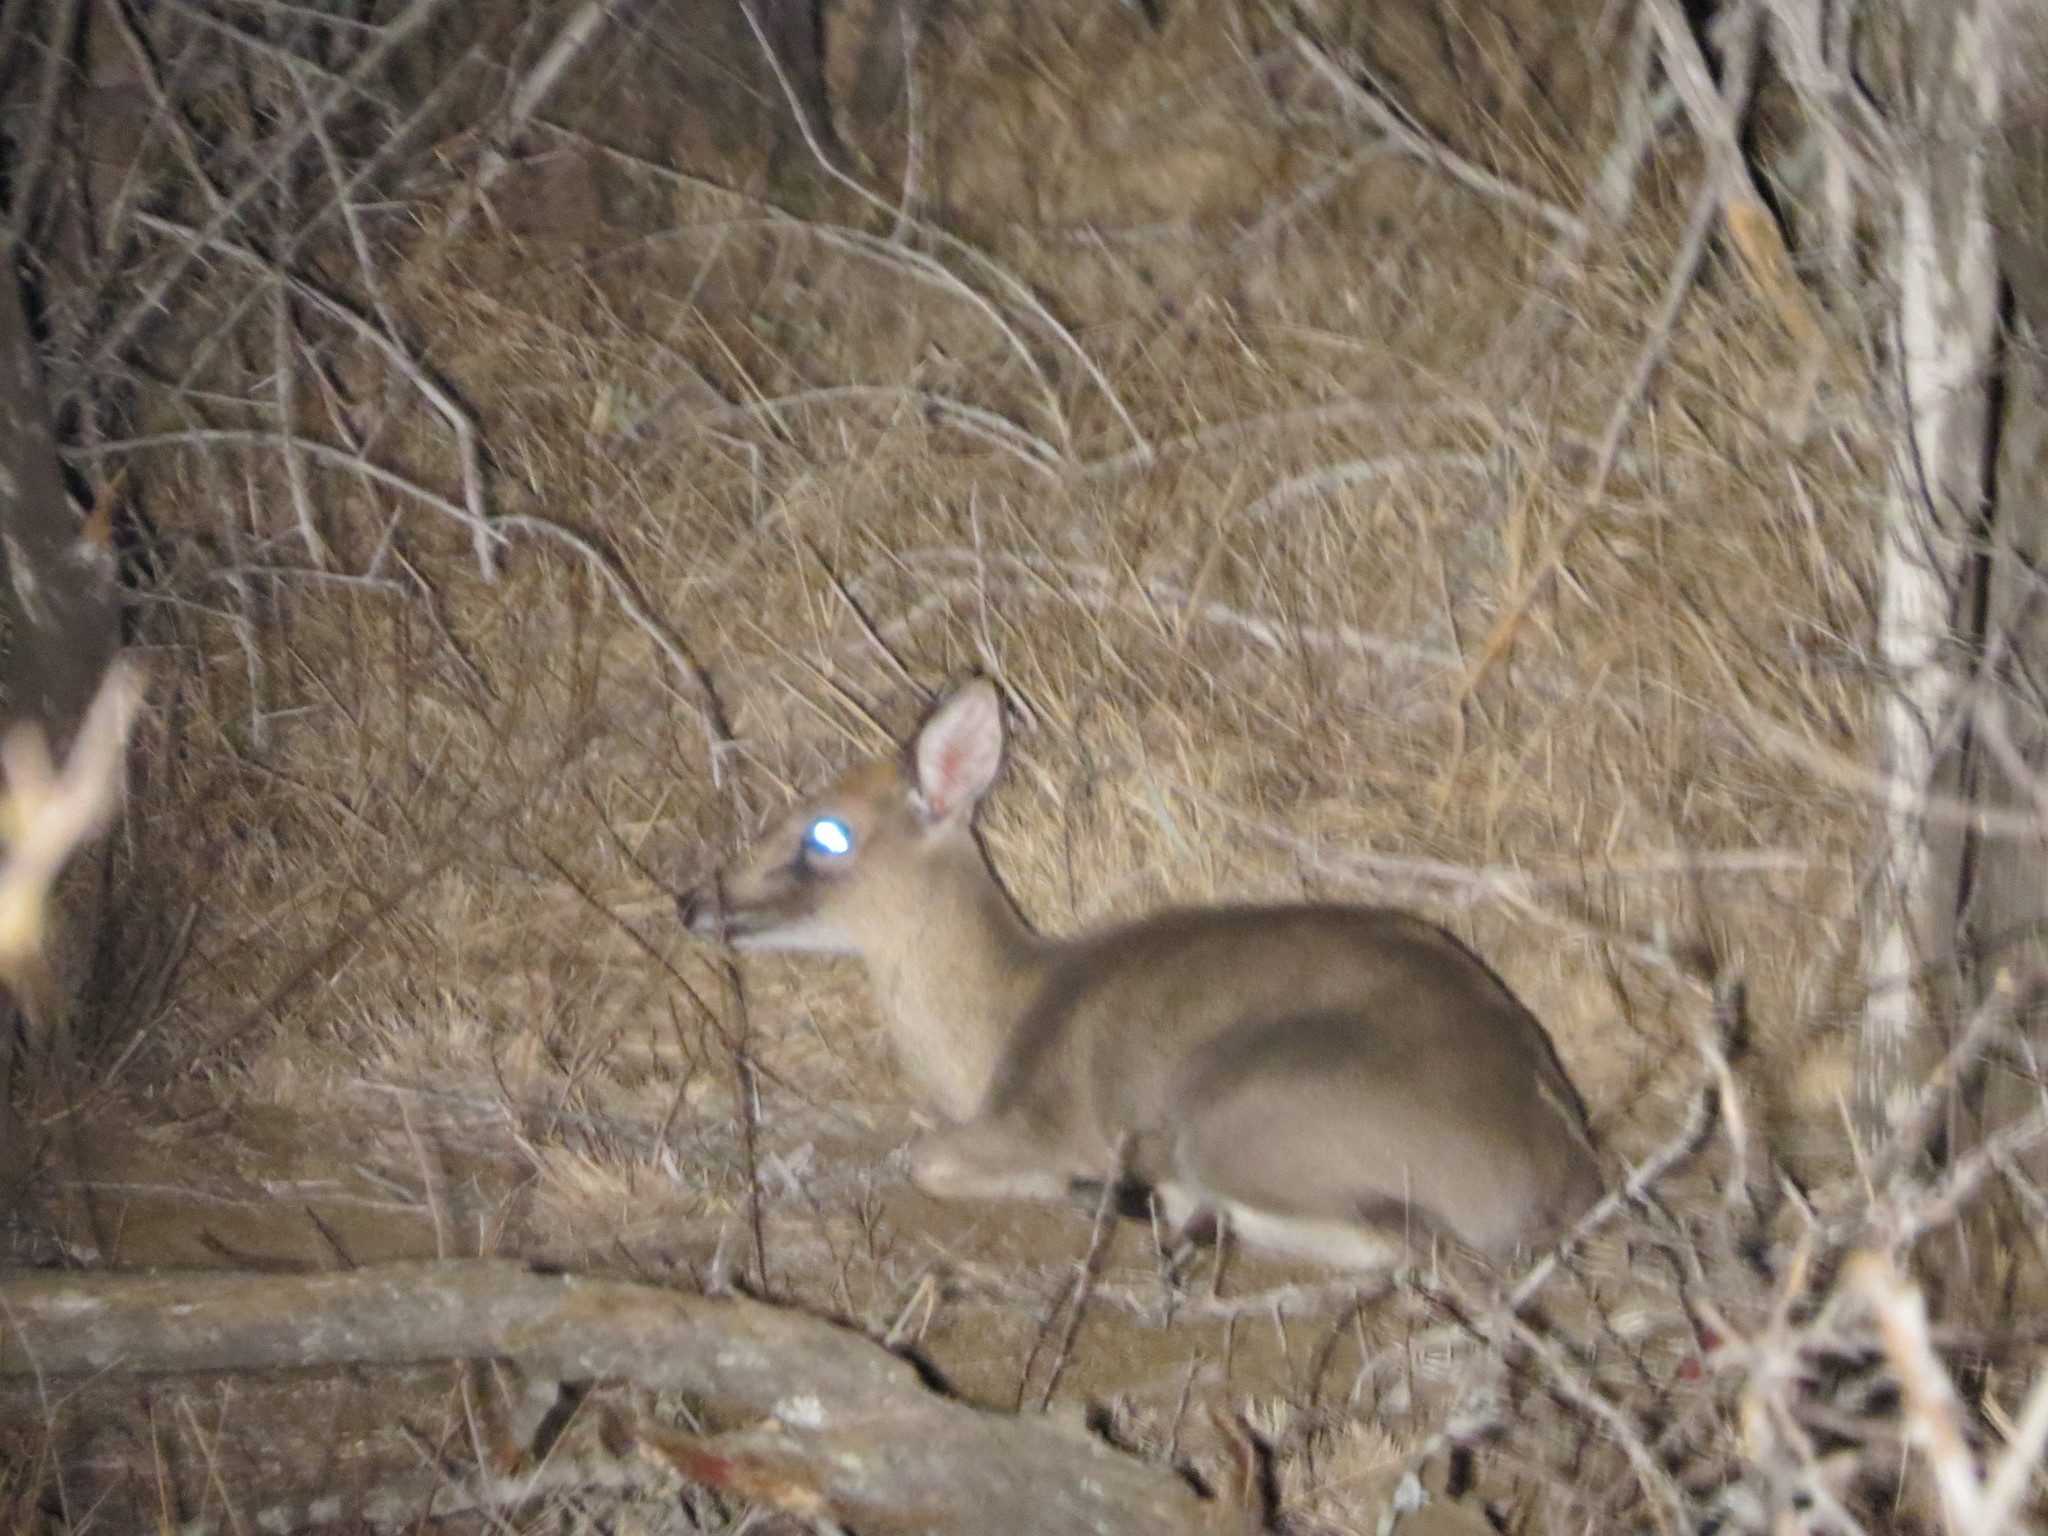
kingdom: Animalia
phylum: Chordata
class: Mammalia
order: Artiodactyla
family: Bovidae
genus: Sylvicapra
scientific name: Sylvicapra grimmia
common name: Bush duiker
